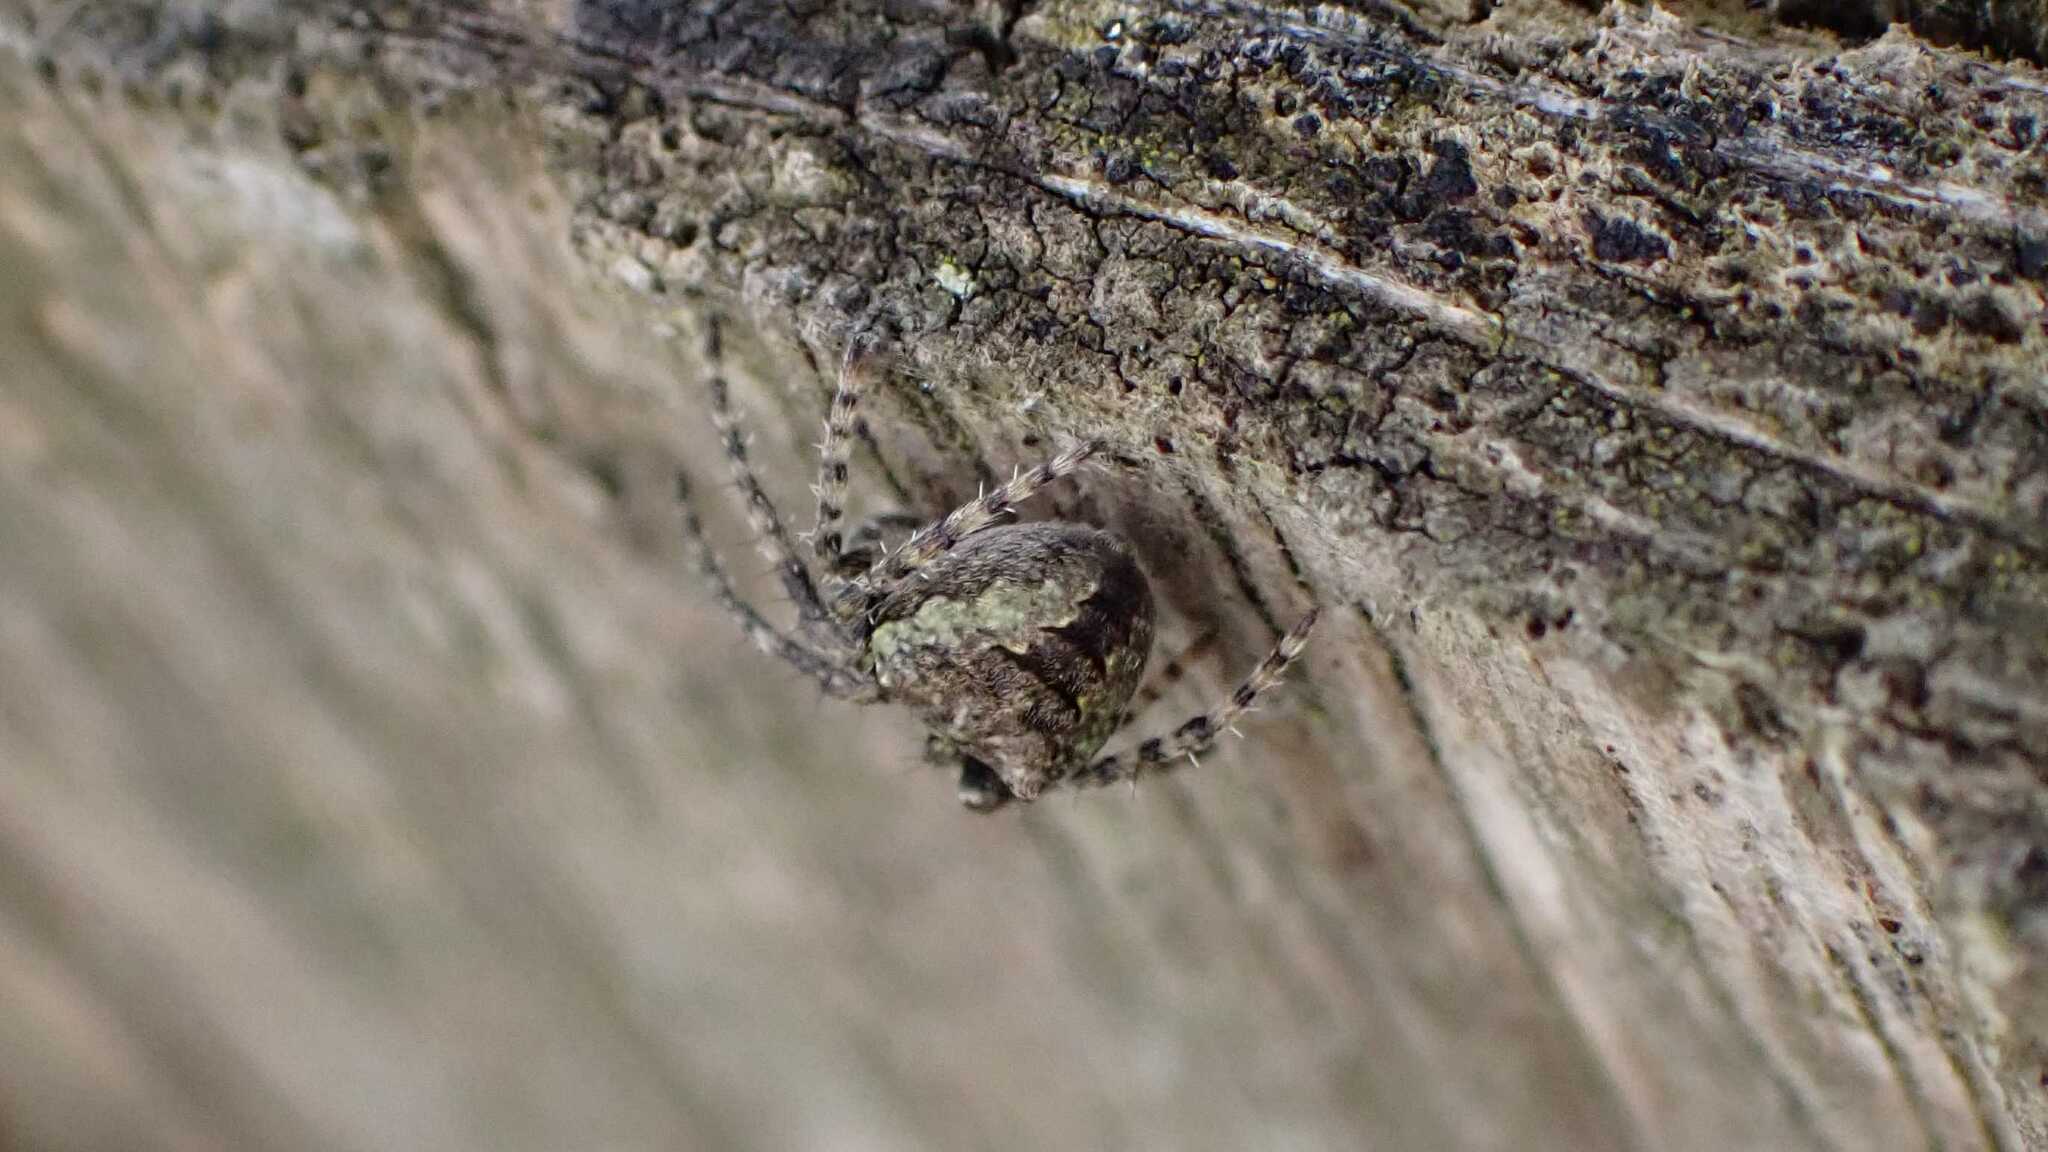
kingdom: Animalia
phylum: Arthropoda
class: Arachnida
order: Araneae
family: Araneidae
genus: Gibbaranea
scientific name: Gibbaranea gibbosa
